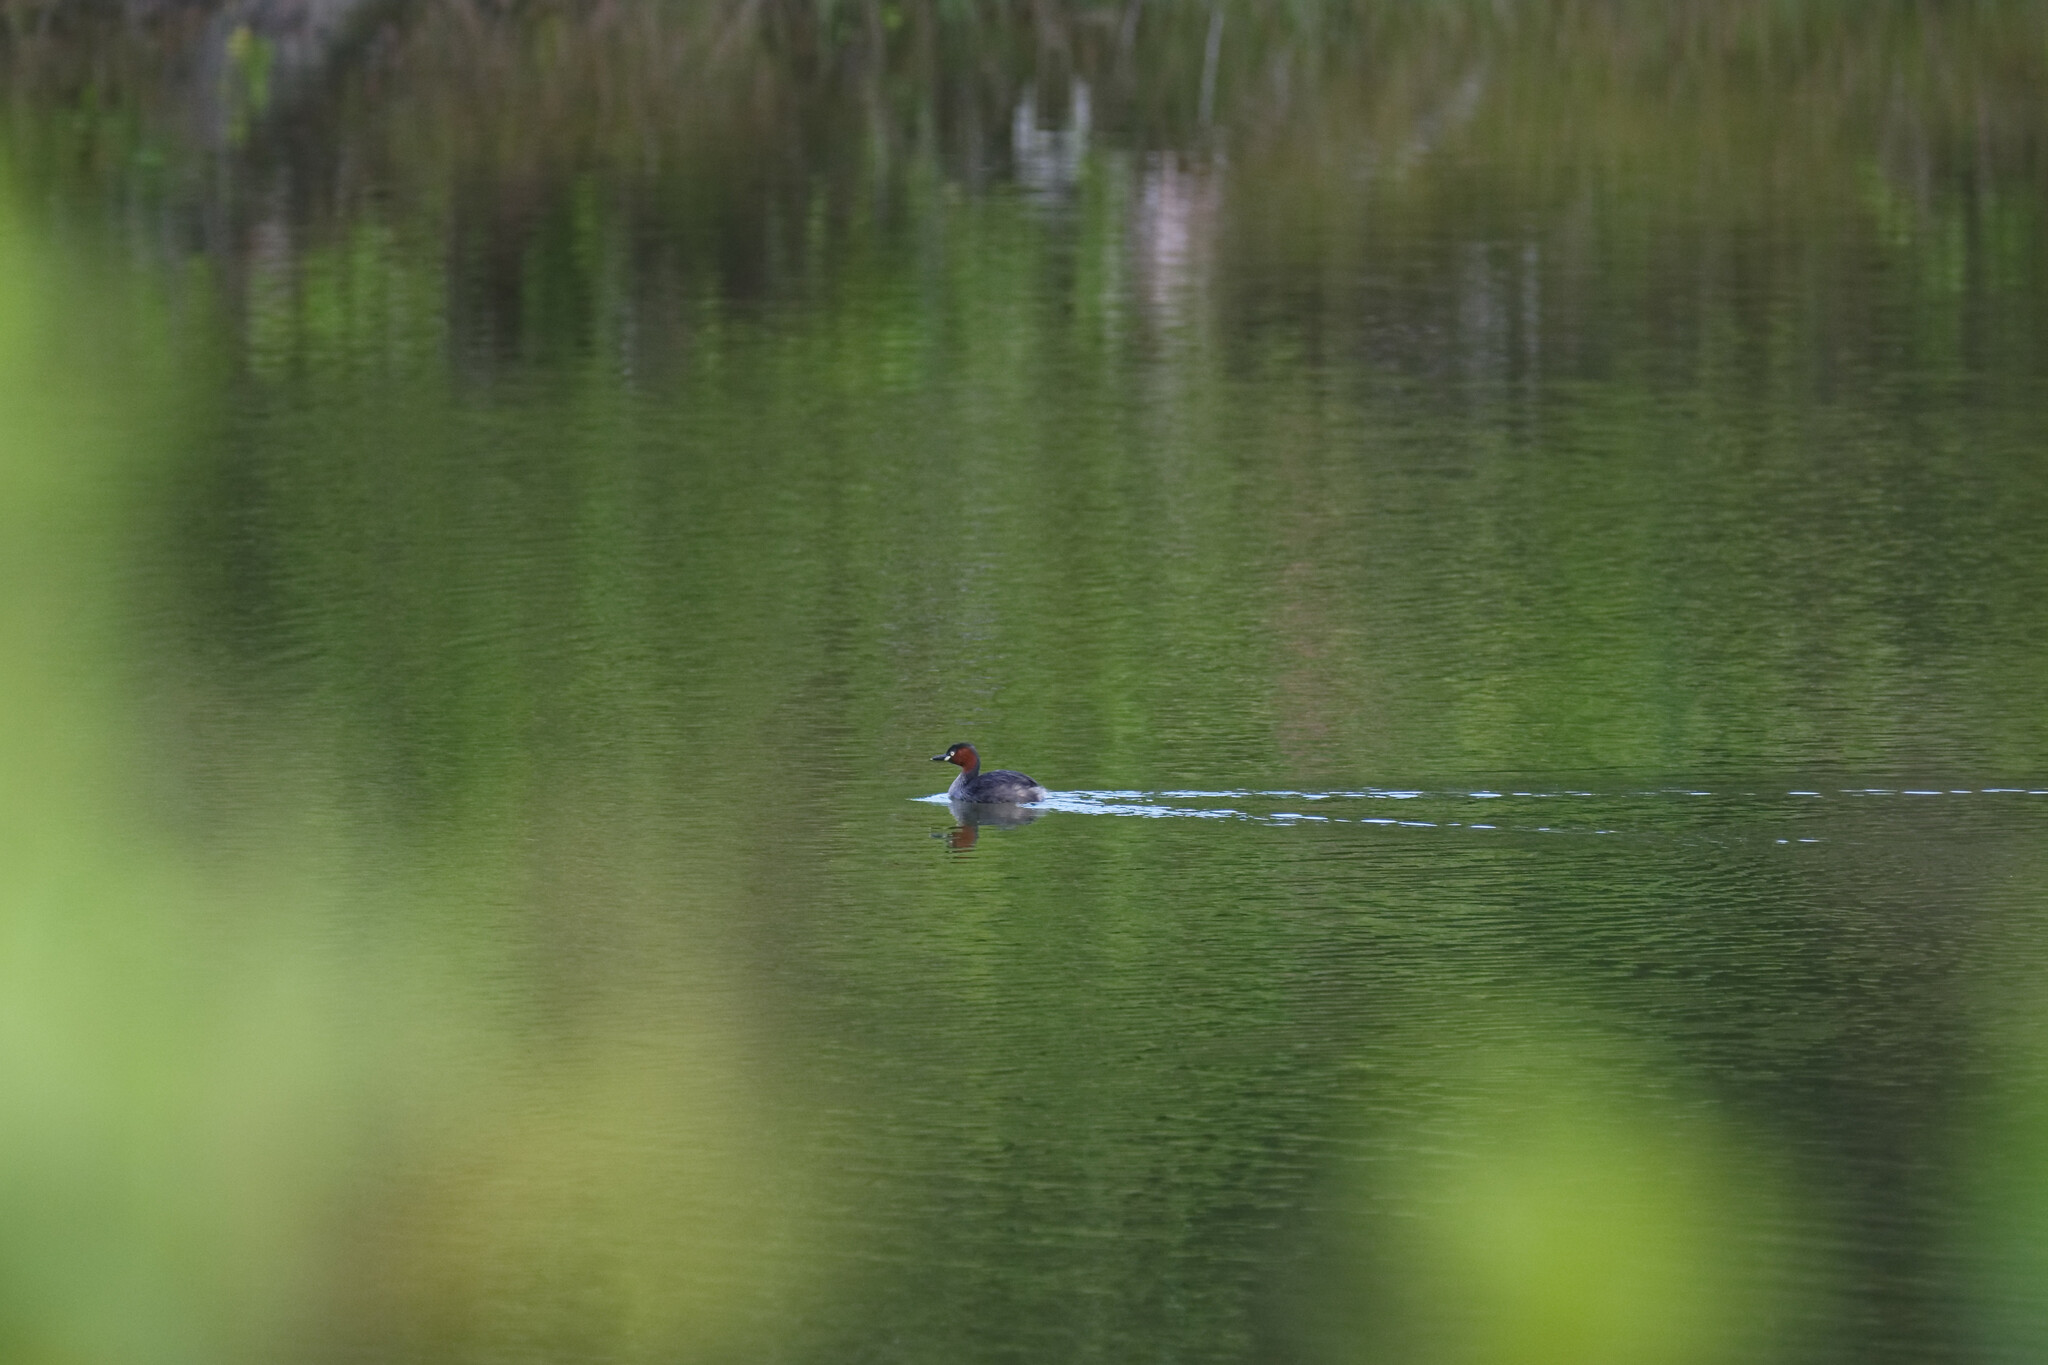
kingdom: Animalia
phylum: Chordata
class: Aves
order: Podicipediformes
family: Podicipedidae
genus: Tachybaptus
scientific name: Tachybaptus ruficollis
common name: Little grebe
